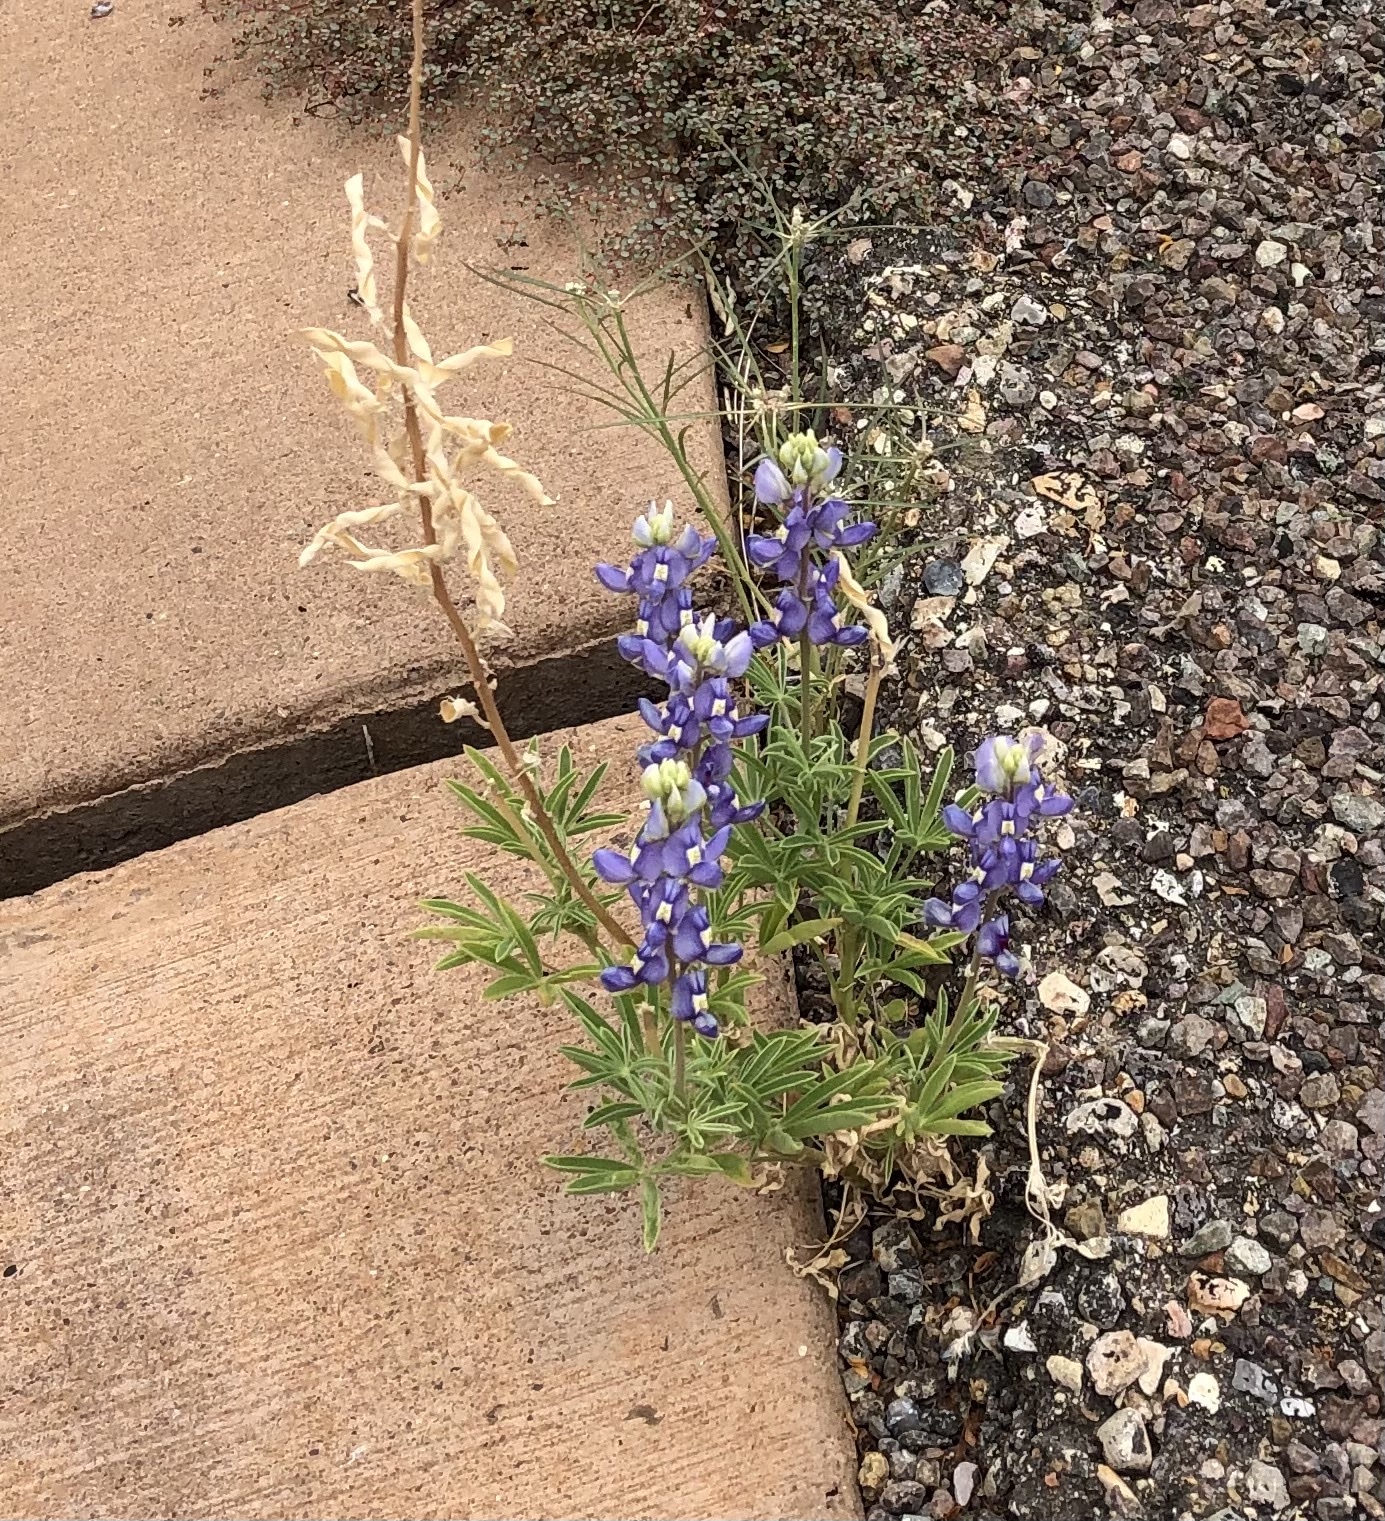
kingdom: Plantae
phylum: Tracheophyta
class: Magnoliopsida
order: Fabales
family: Fabaceae
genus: Lupinus
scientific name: Lupinus havardii
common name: Chisos bluebonnet
